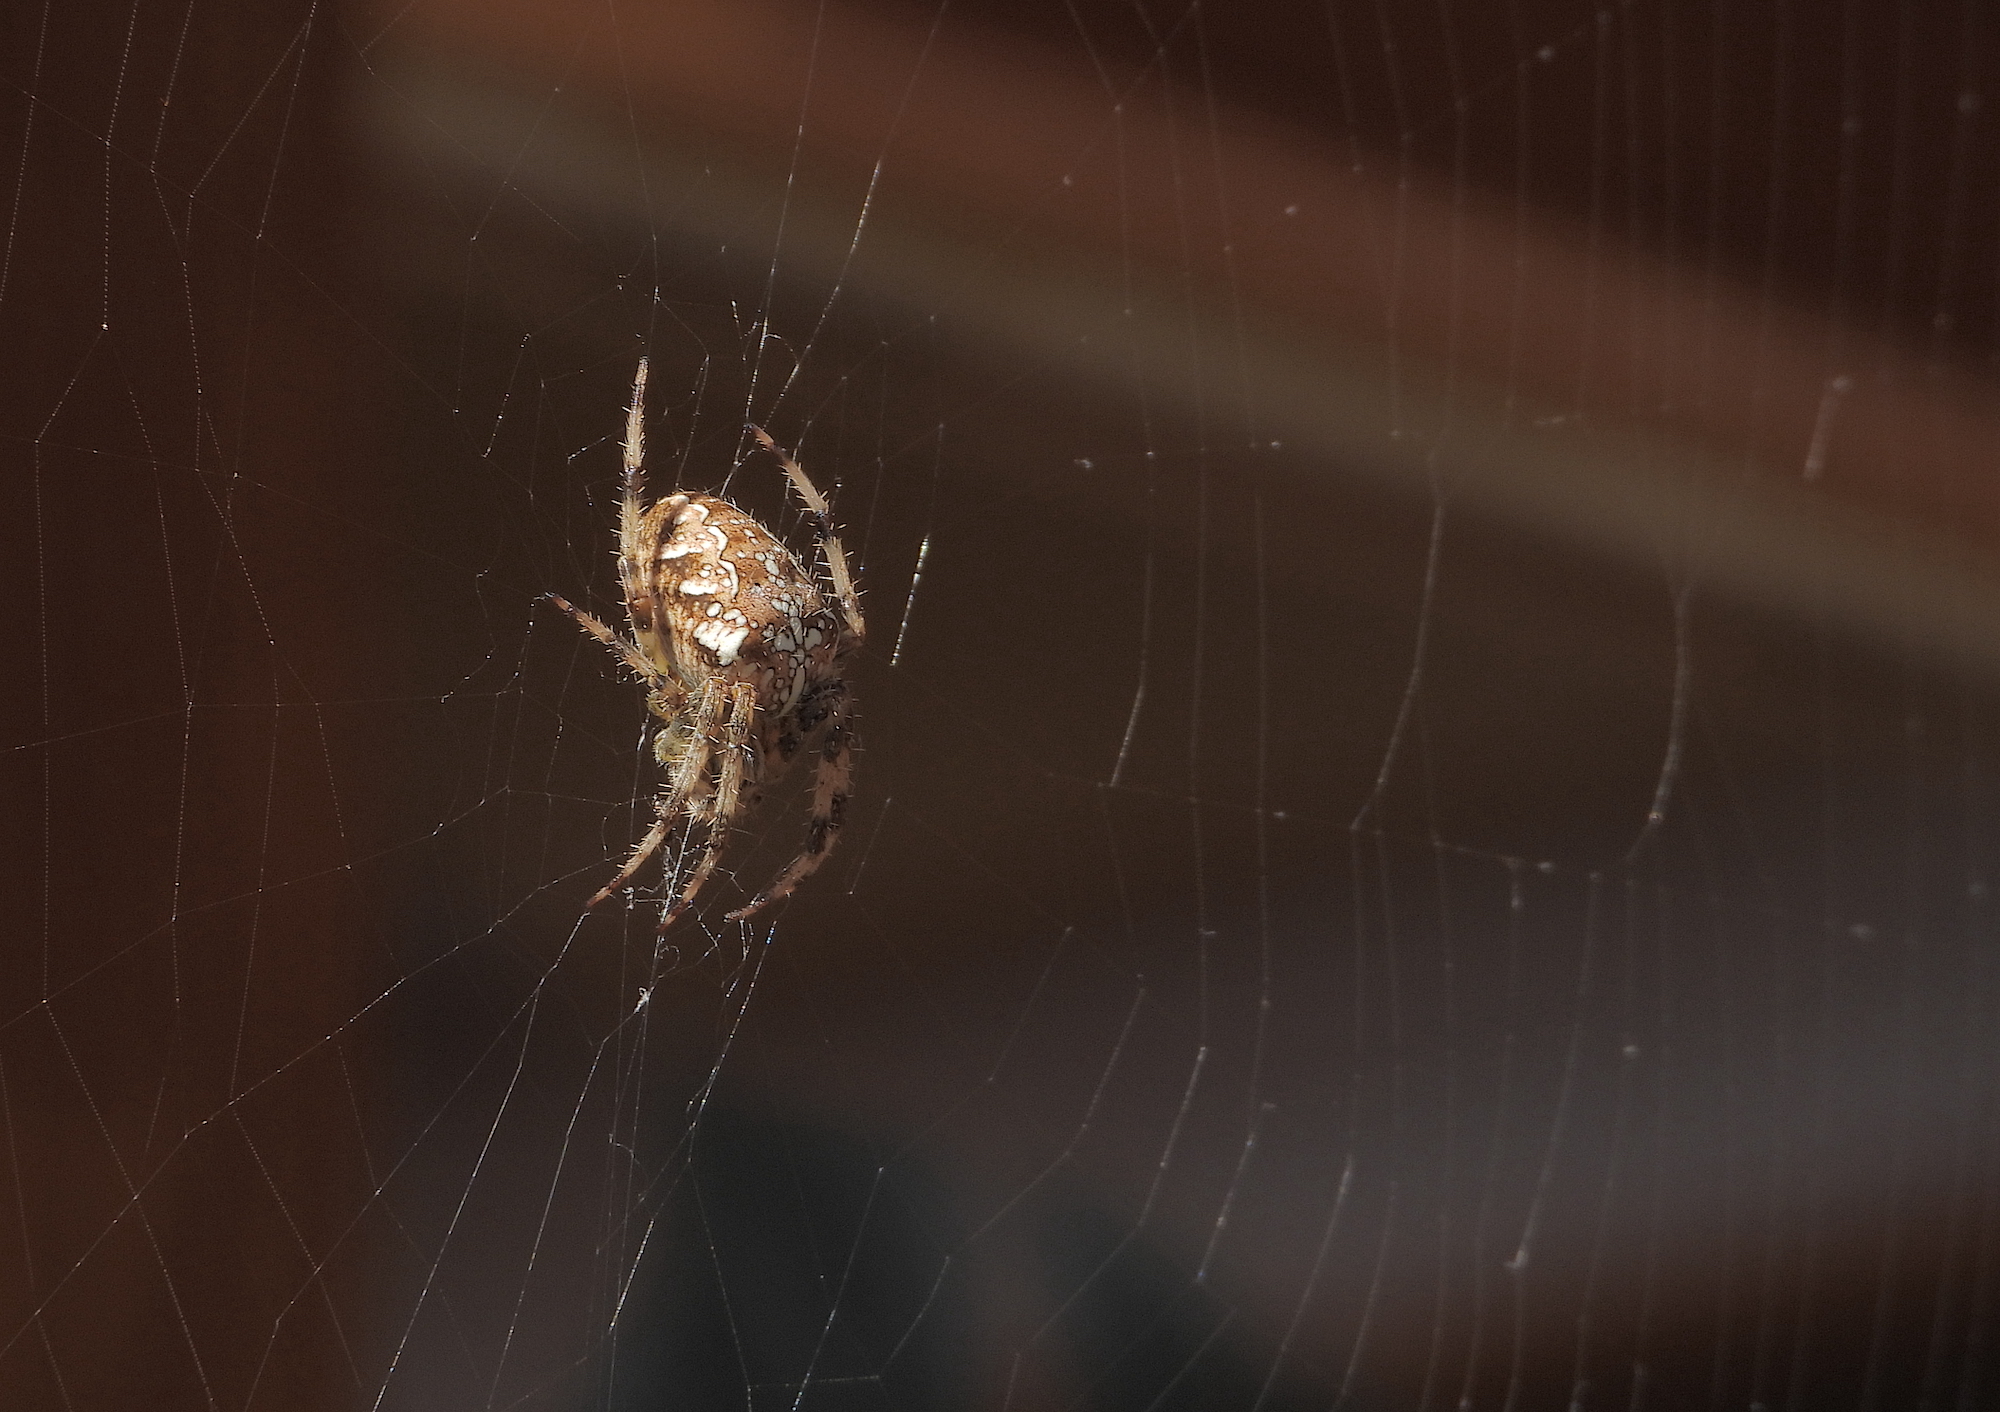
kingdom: Animalia
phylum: Arthropoda
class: Arachnida
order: Araneae
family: Araneidae
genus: Araneus
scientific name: Araneus diadematus
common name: Cross orbweaver
